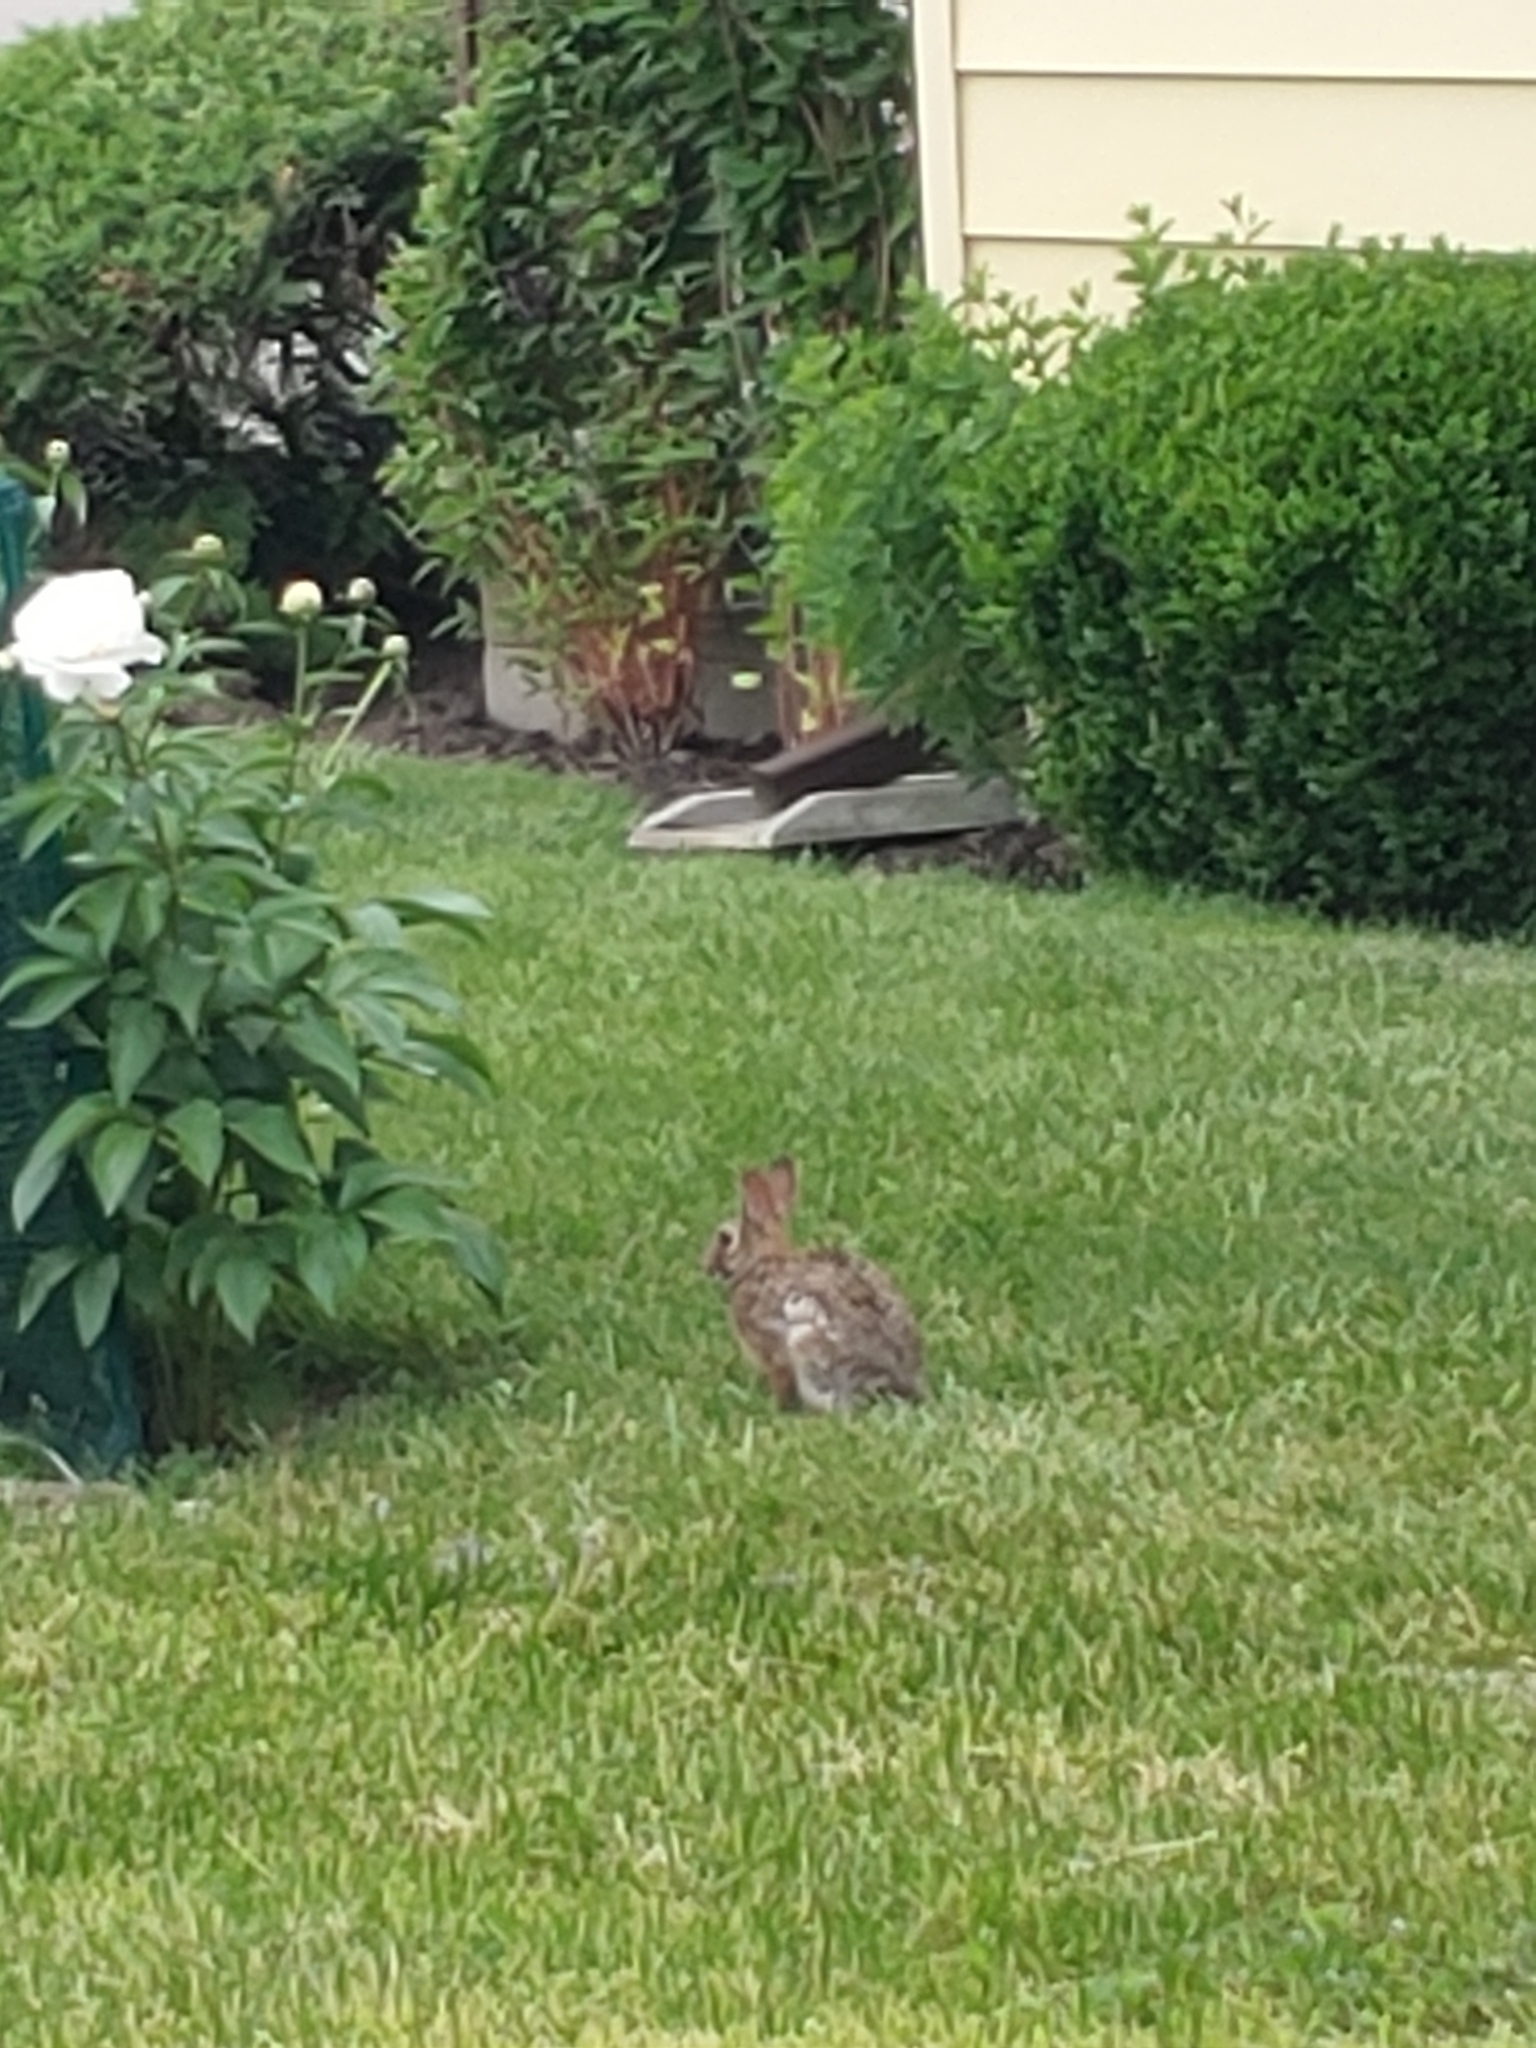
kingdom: Animalia
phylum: Chordata
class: Mammalia
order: Lagomorpha
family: Leporidae
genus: Sylvilagus
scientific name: Sylvilagus floridanus
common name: Eastern cottontail
